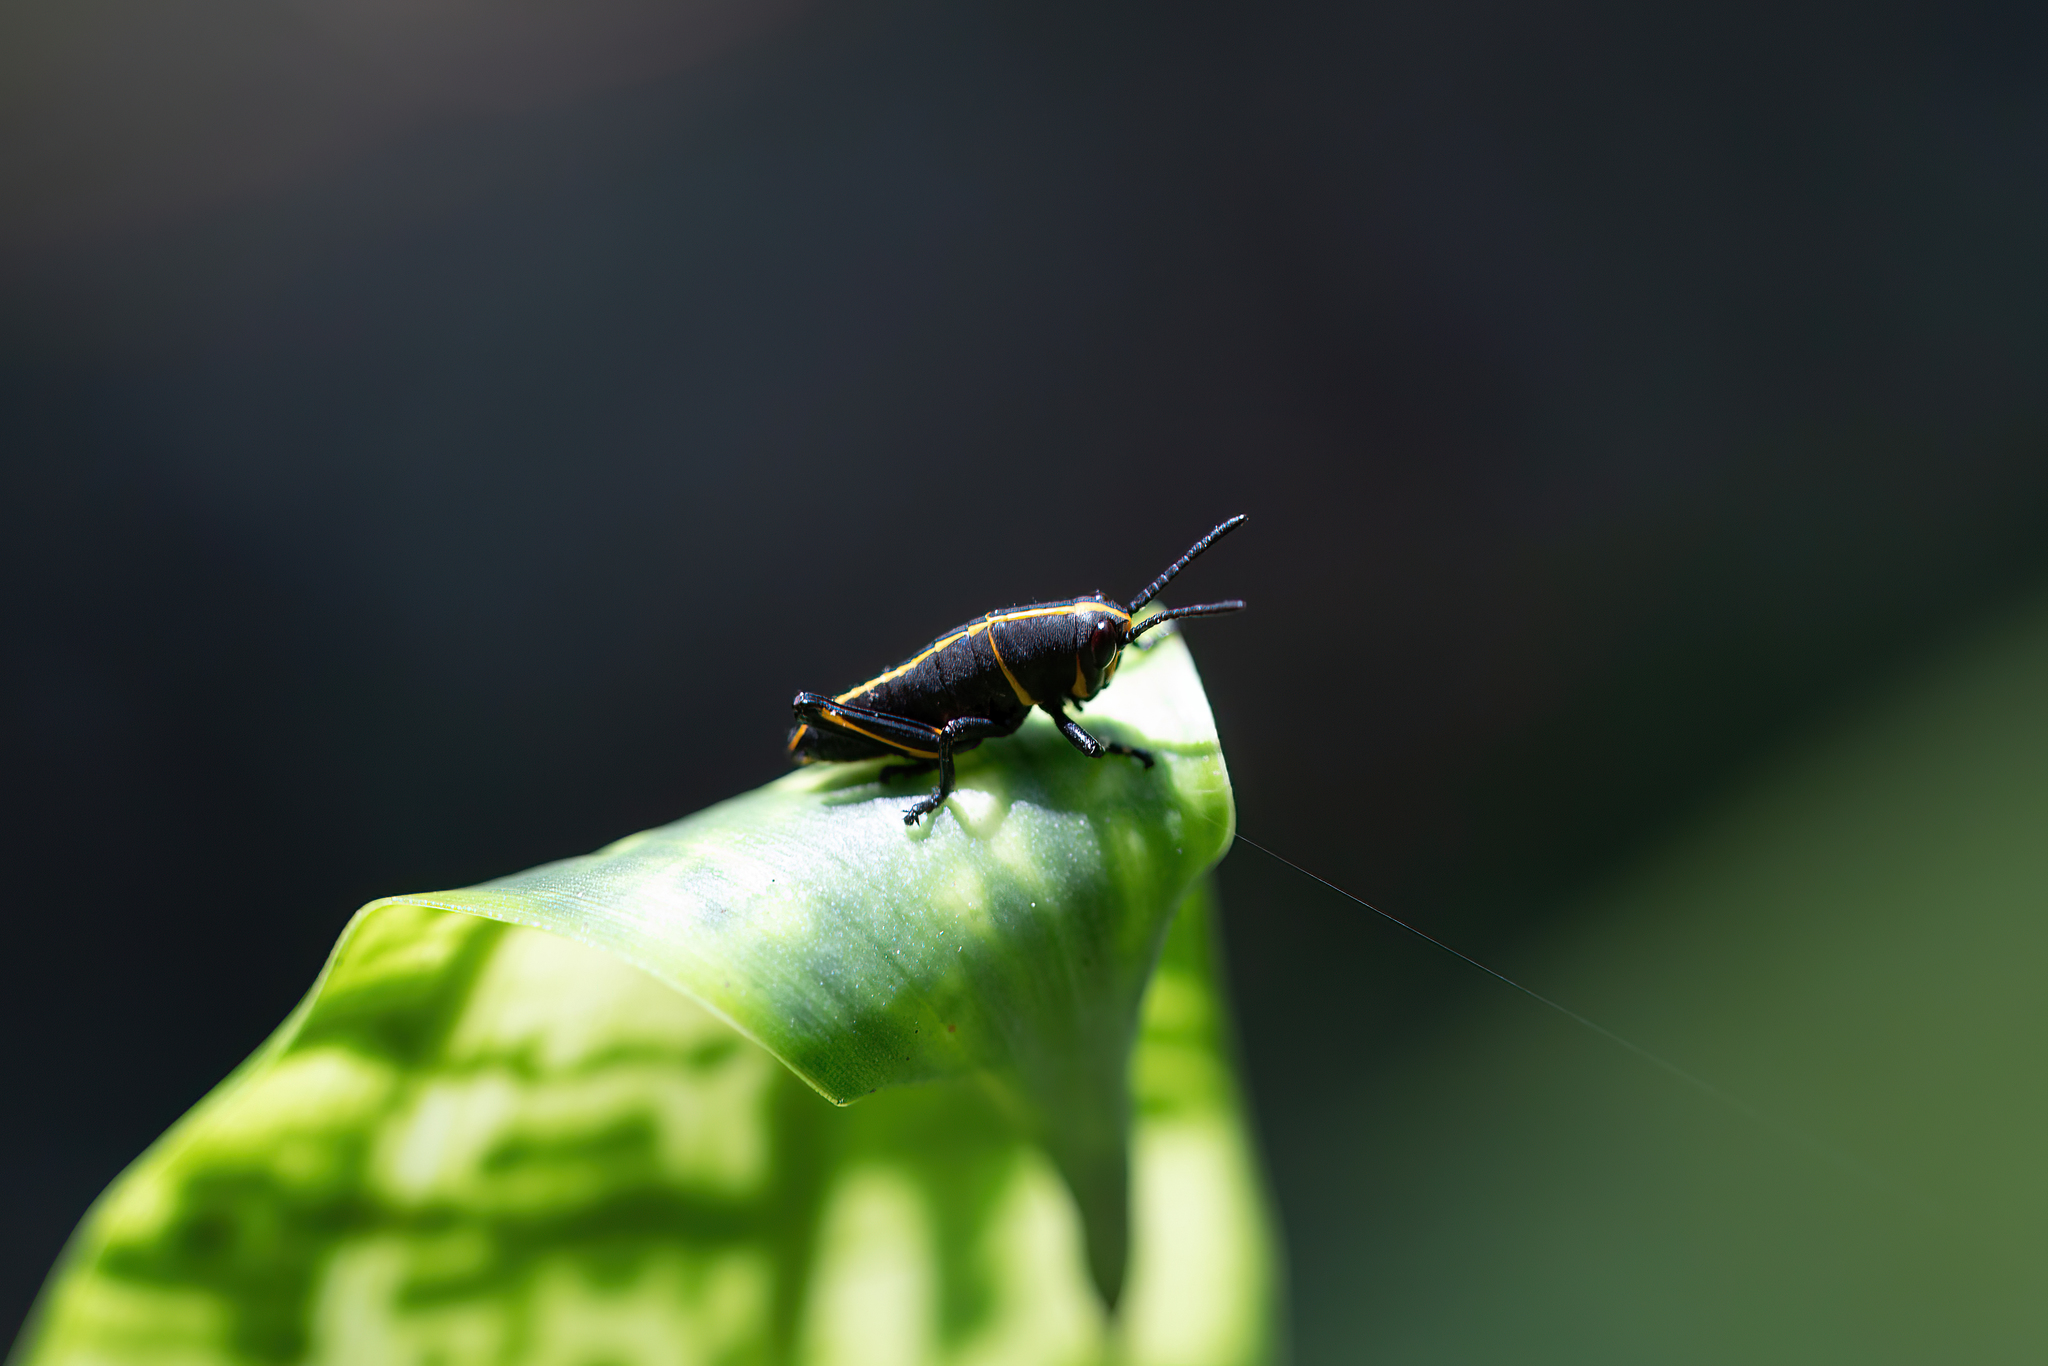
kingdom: Animalia
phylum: Arthropoda
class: Insecta
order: Orthoptera
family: Romaleidae
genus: Romalea
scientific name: Romalea microptera
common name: Eastern lubber grasshopper
